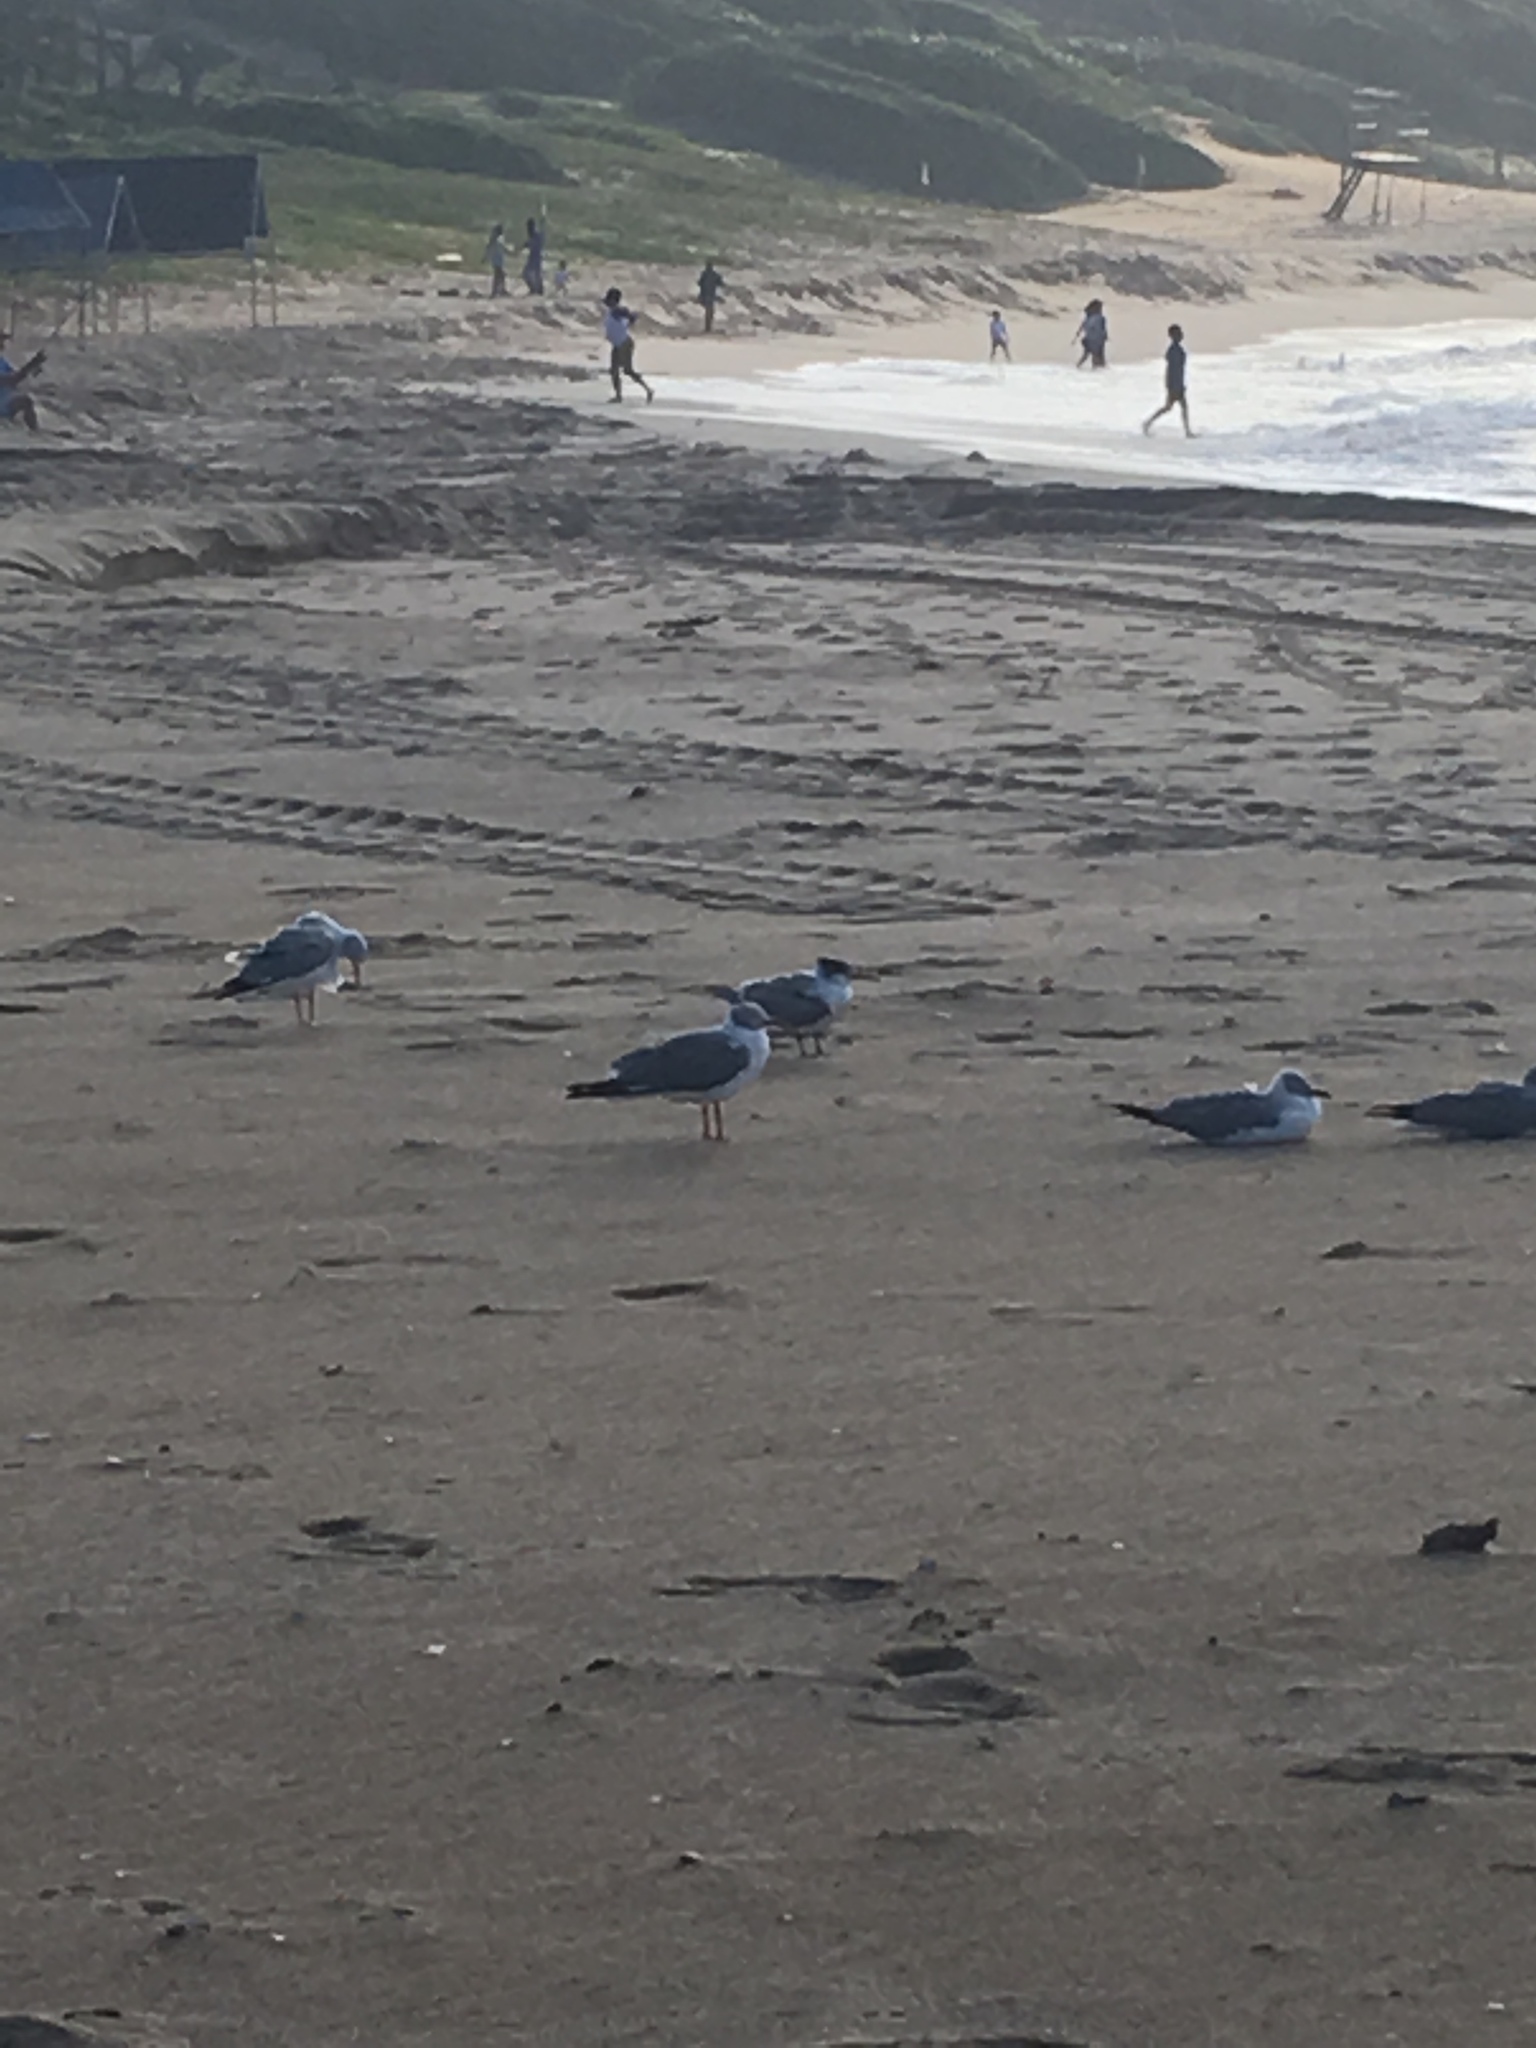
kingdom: Animalia
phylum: Chordata
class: Aves
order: Charadriiformes
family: Laridae
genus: Thalasseus
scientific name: Thalasseus bergii
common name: Greater crested tern
